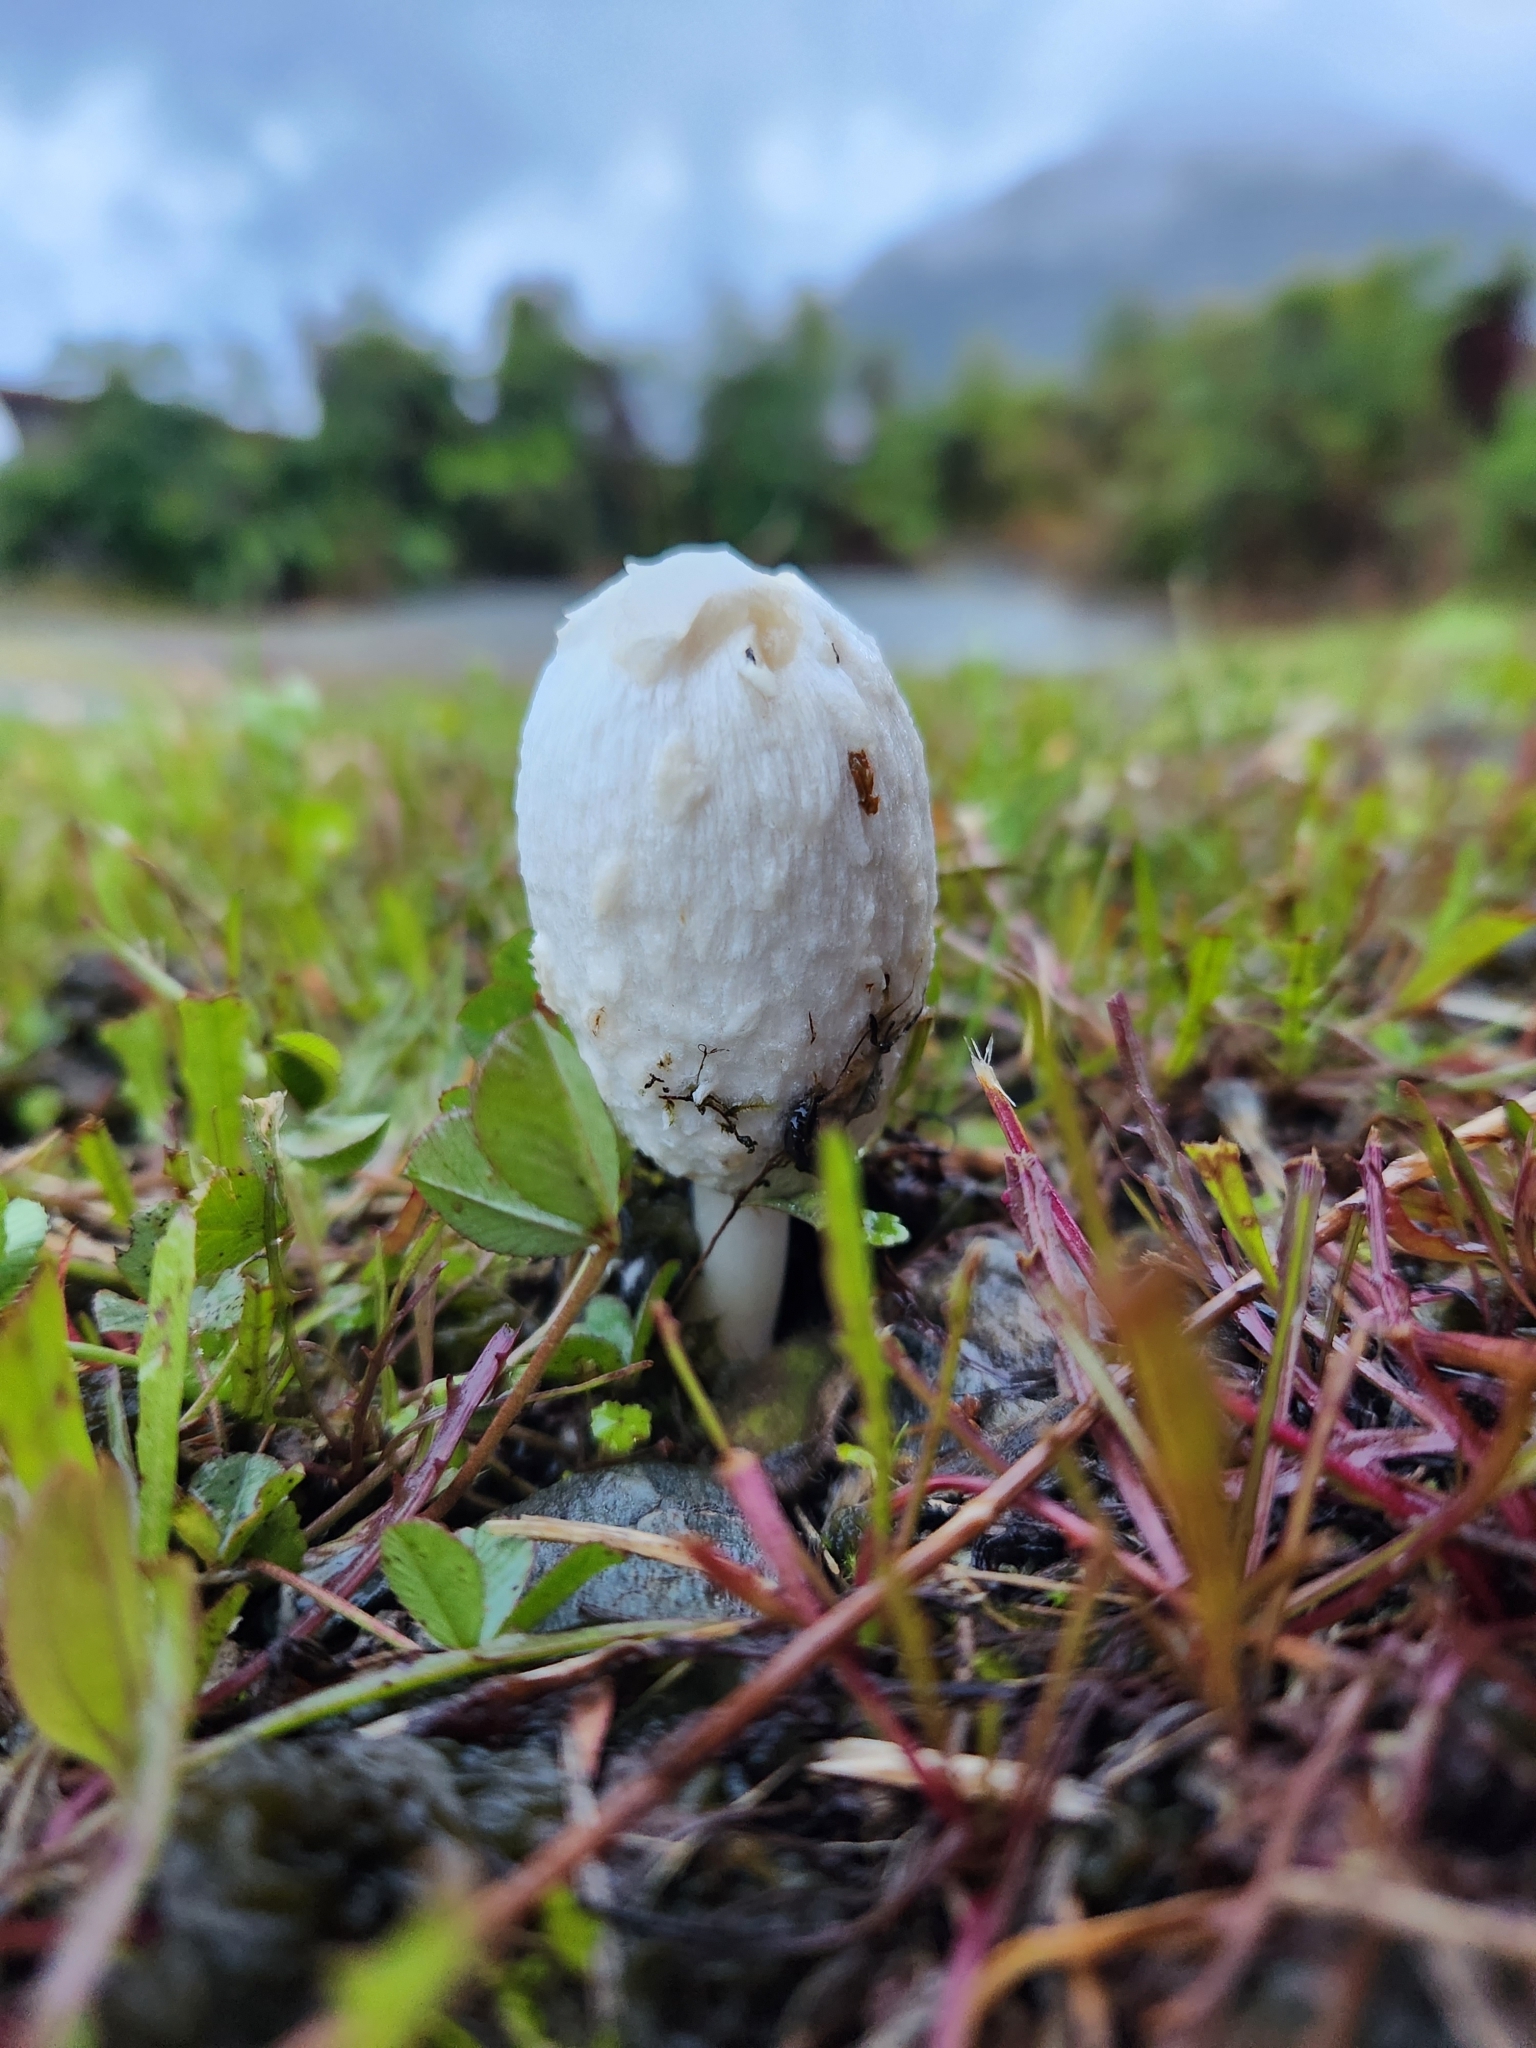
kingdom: Fungi
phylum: Basidiomycota
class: Agaricomycetes
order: Agaricales
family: Agaricaceae
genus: Coprinus
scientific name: Coprinus comatus
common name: Lawyer's wig
